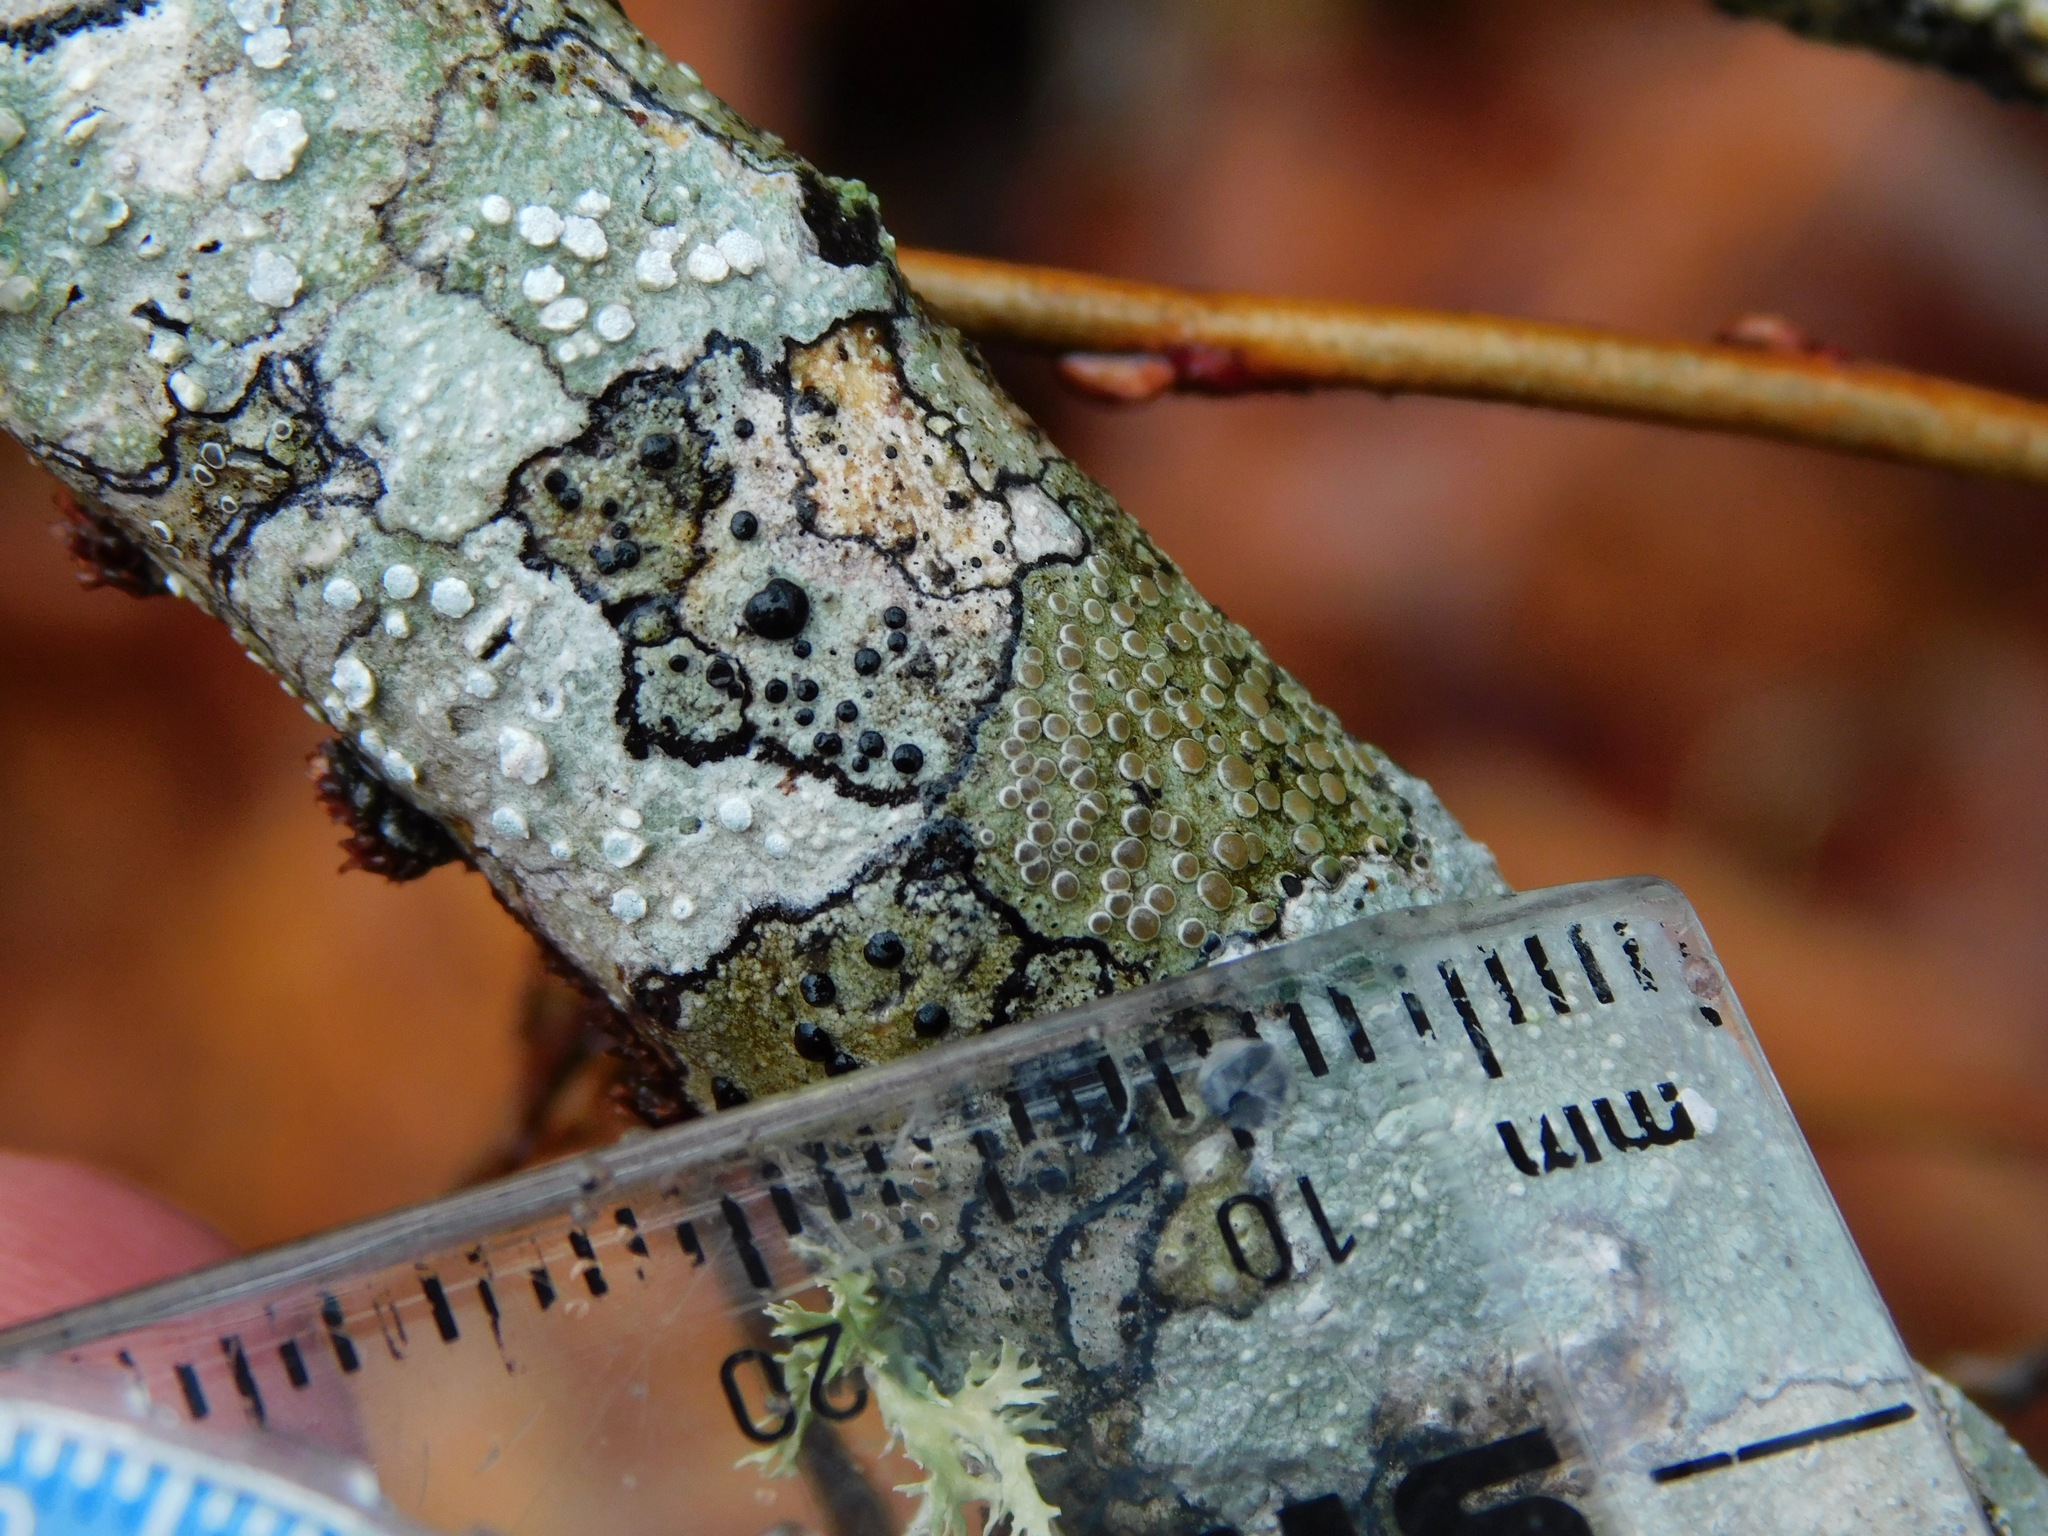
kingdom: Fungi
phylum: Ascomycota
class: Lecanoromycetes
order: Lecanorales
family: Lecanoraceae
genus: Lecanora
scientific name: Lecanora protervula
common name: Lesser dust my discs
